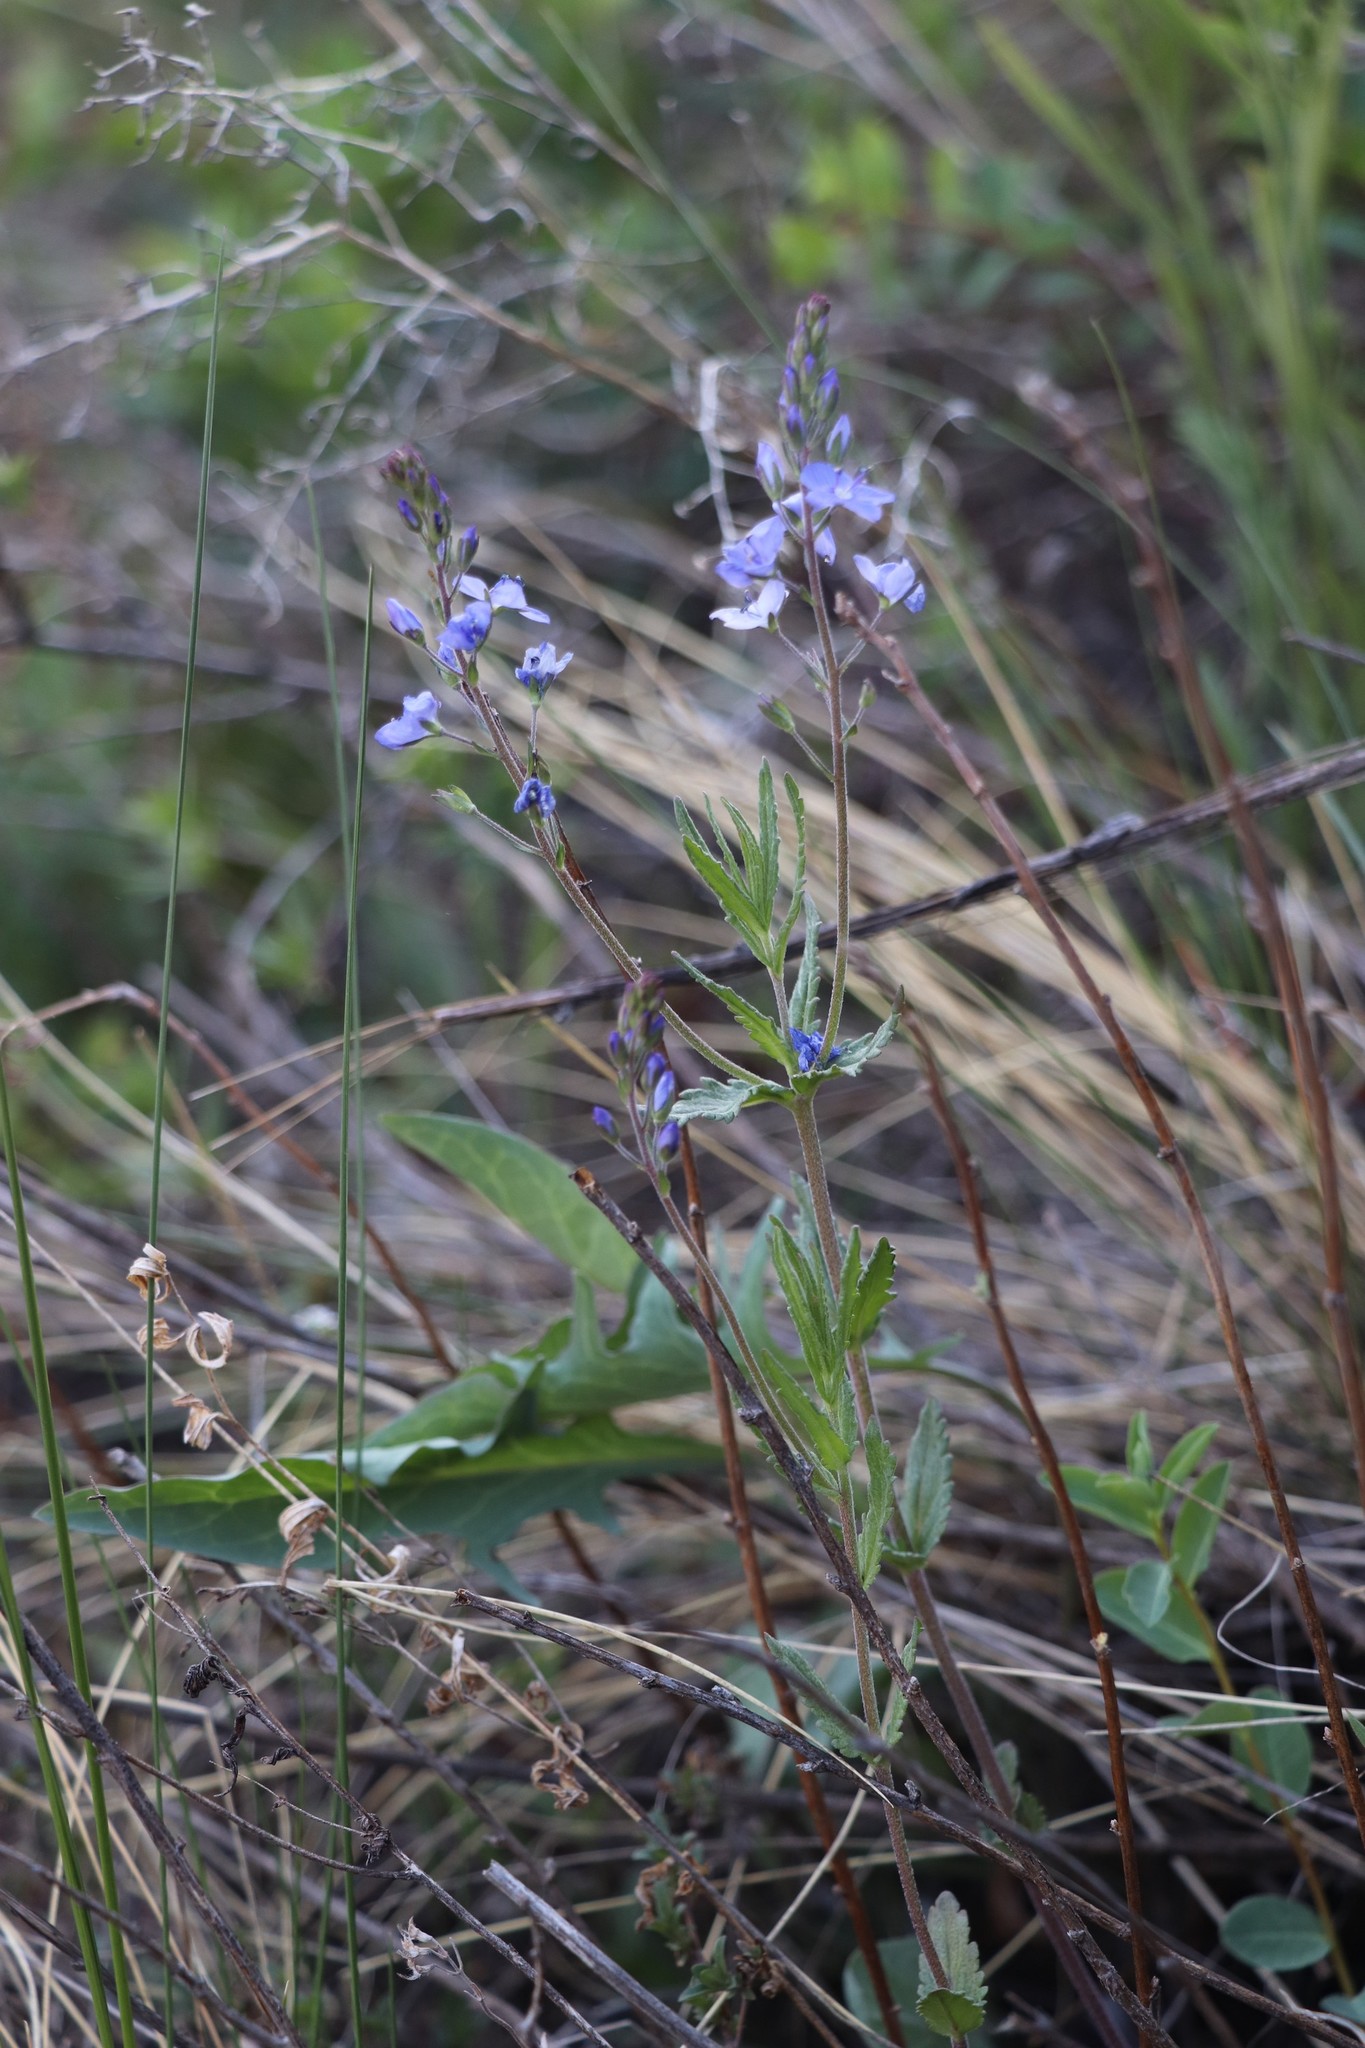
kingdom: Plantae
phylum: Tracheophyta
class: Magnoliopsida
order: Lamiales
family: Plantaginaceae
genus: Veronica
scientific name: Veronica krylovii
